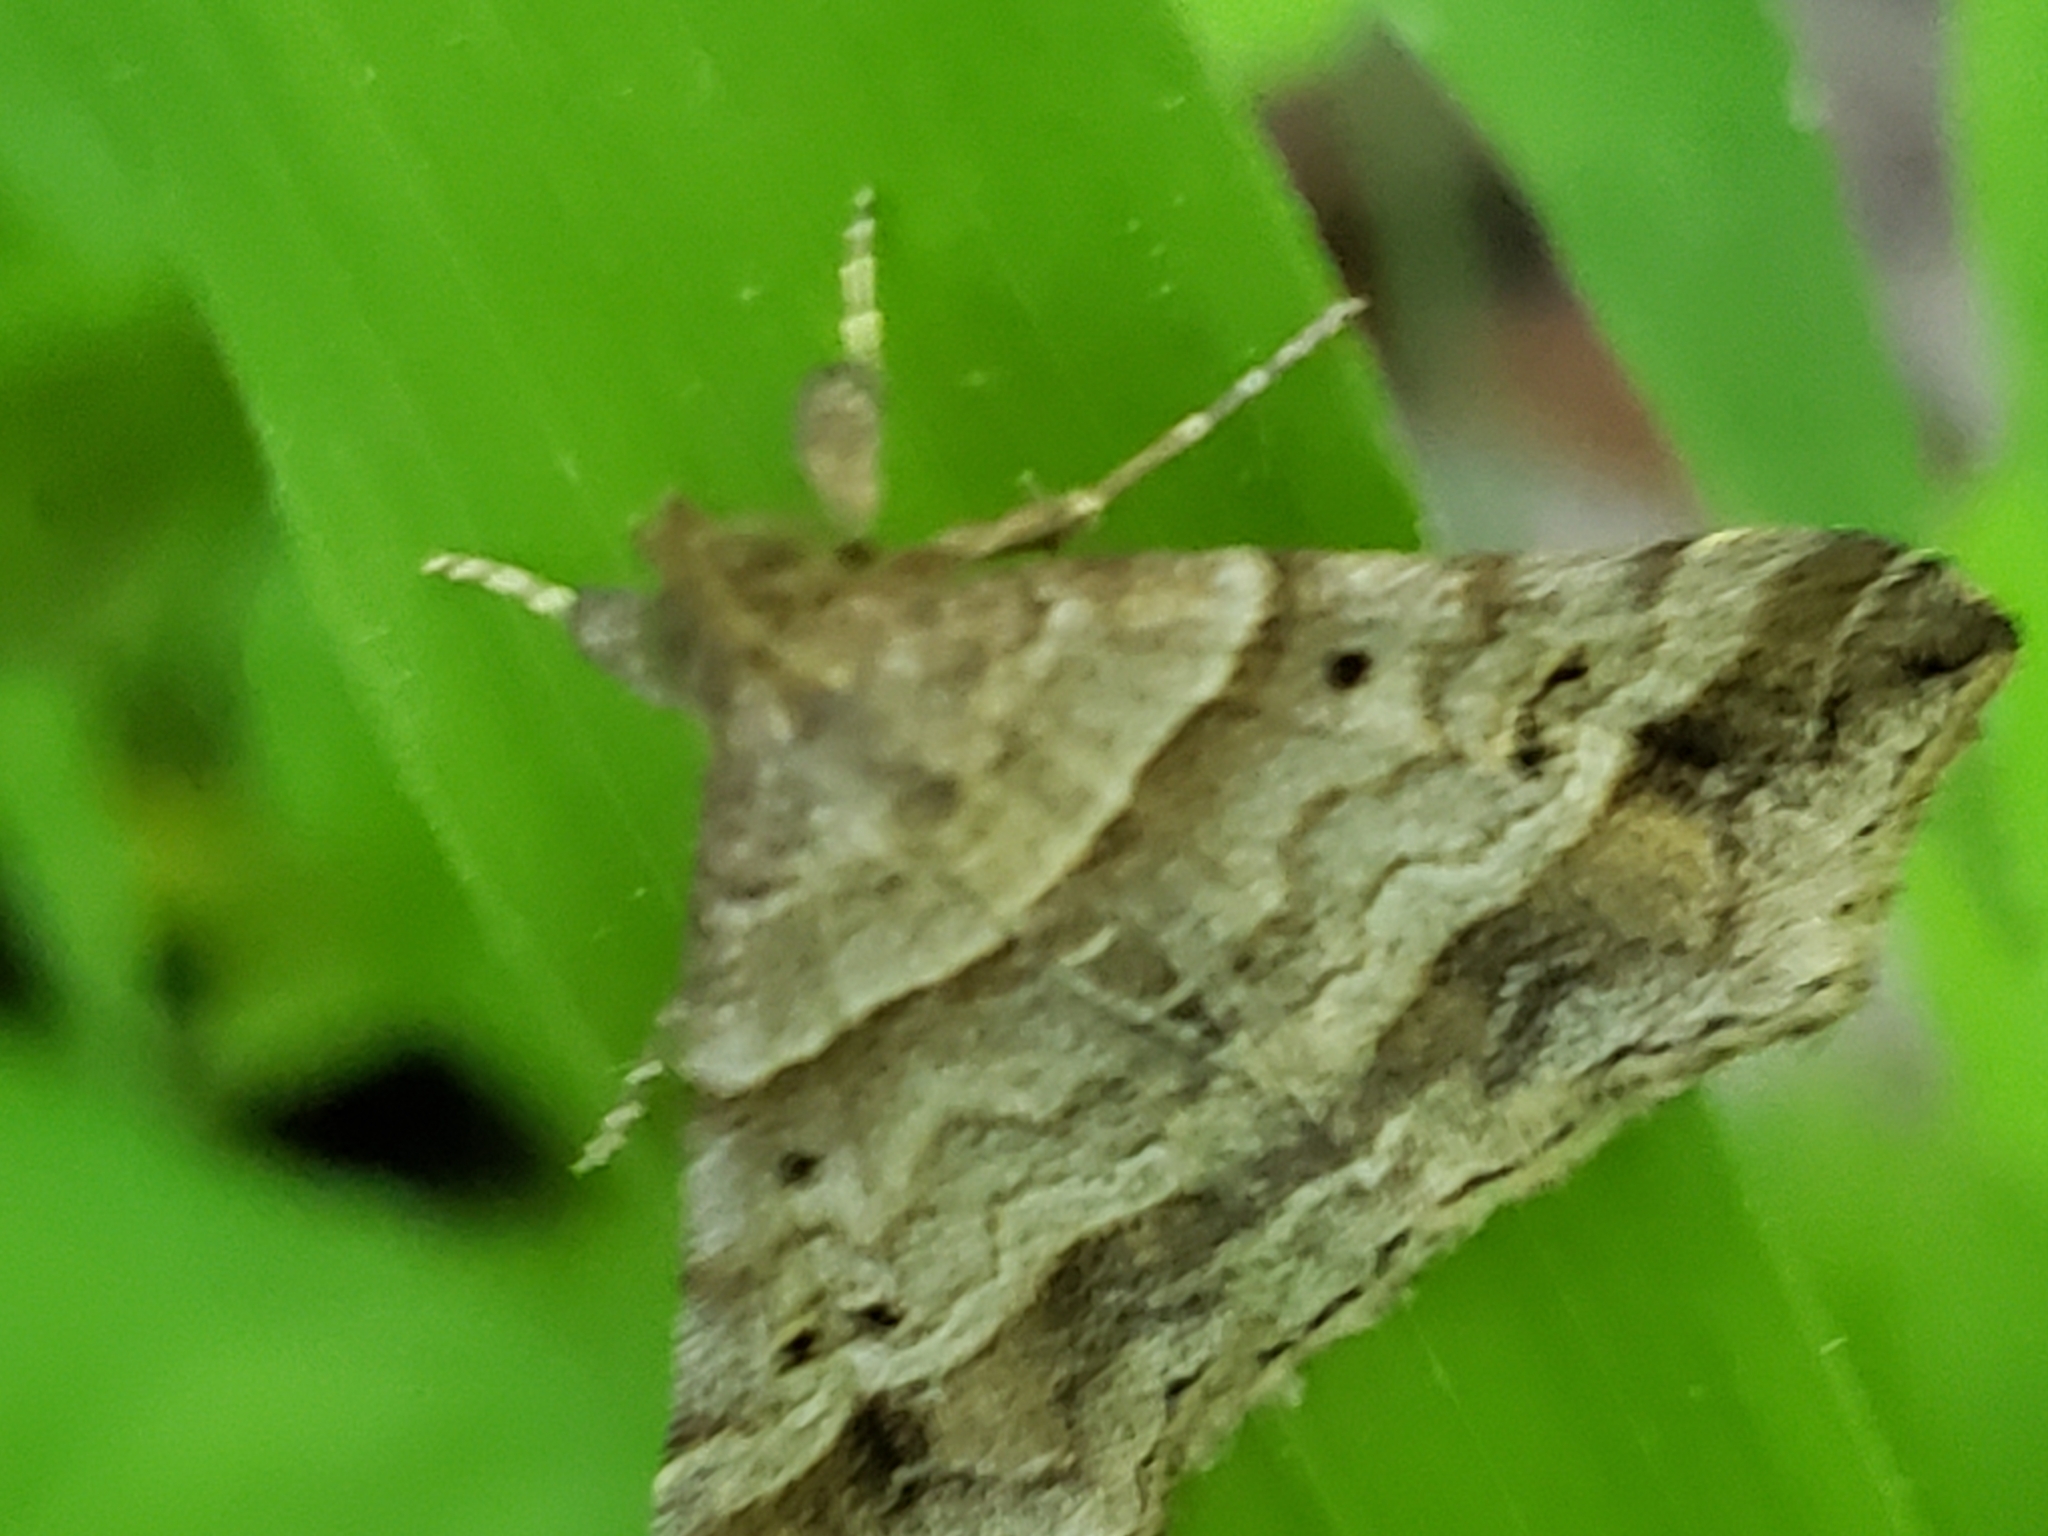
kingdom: Animalia
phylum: Arthropoda
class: Insecta
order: Lepidoptera
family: Erebidae
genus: Phaeolita
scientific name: Phaeolita pyramusalis
